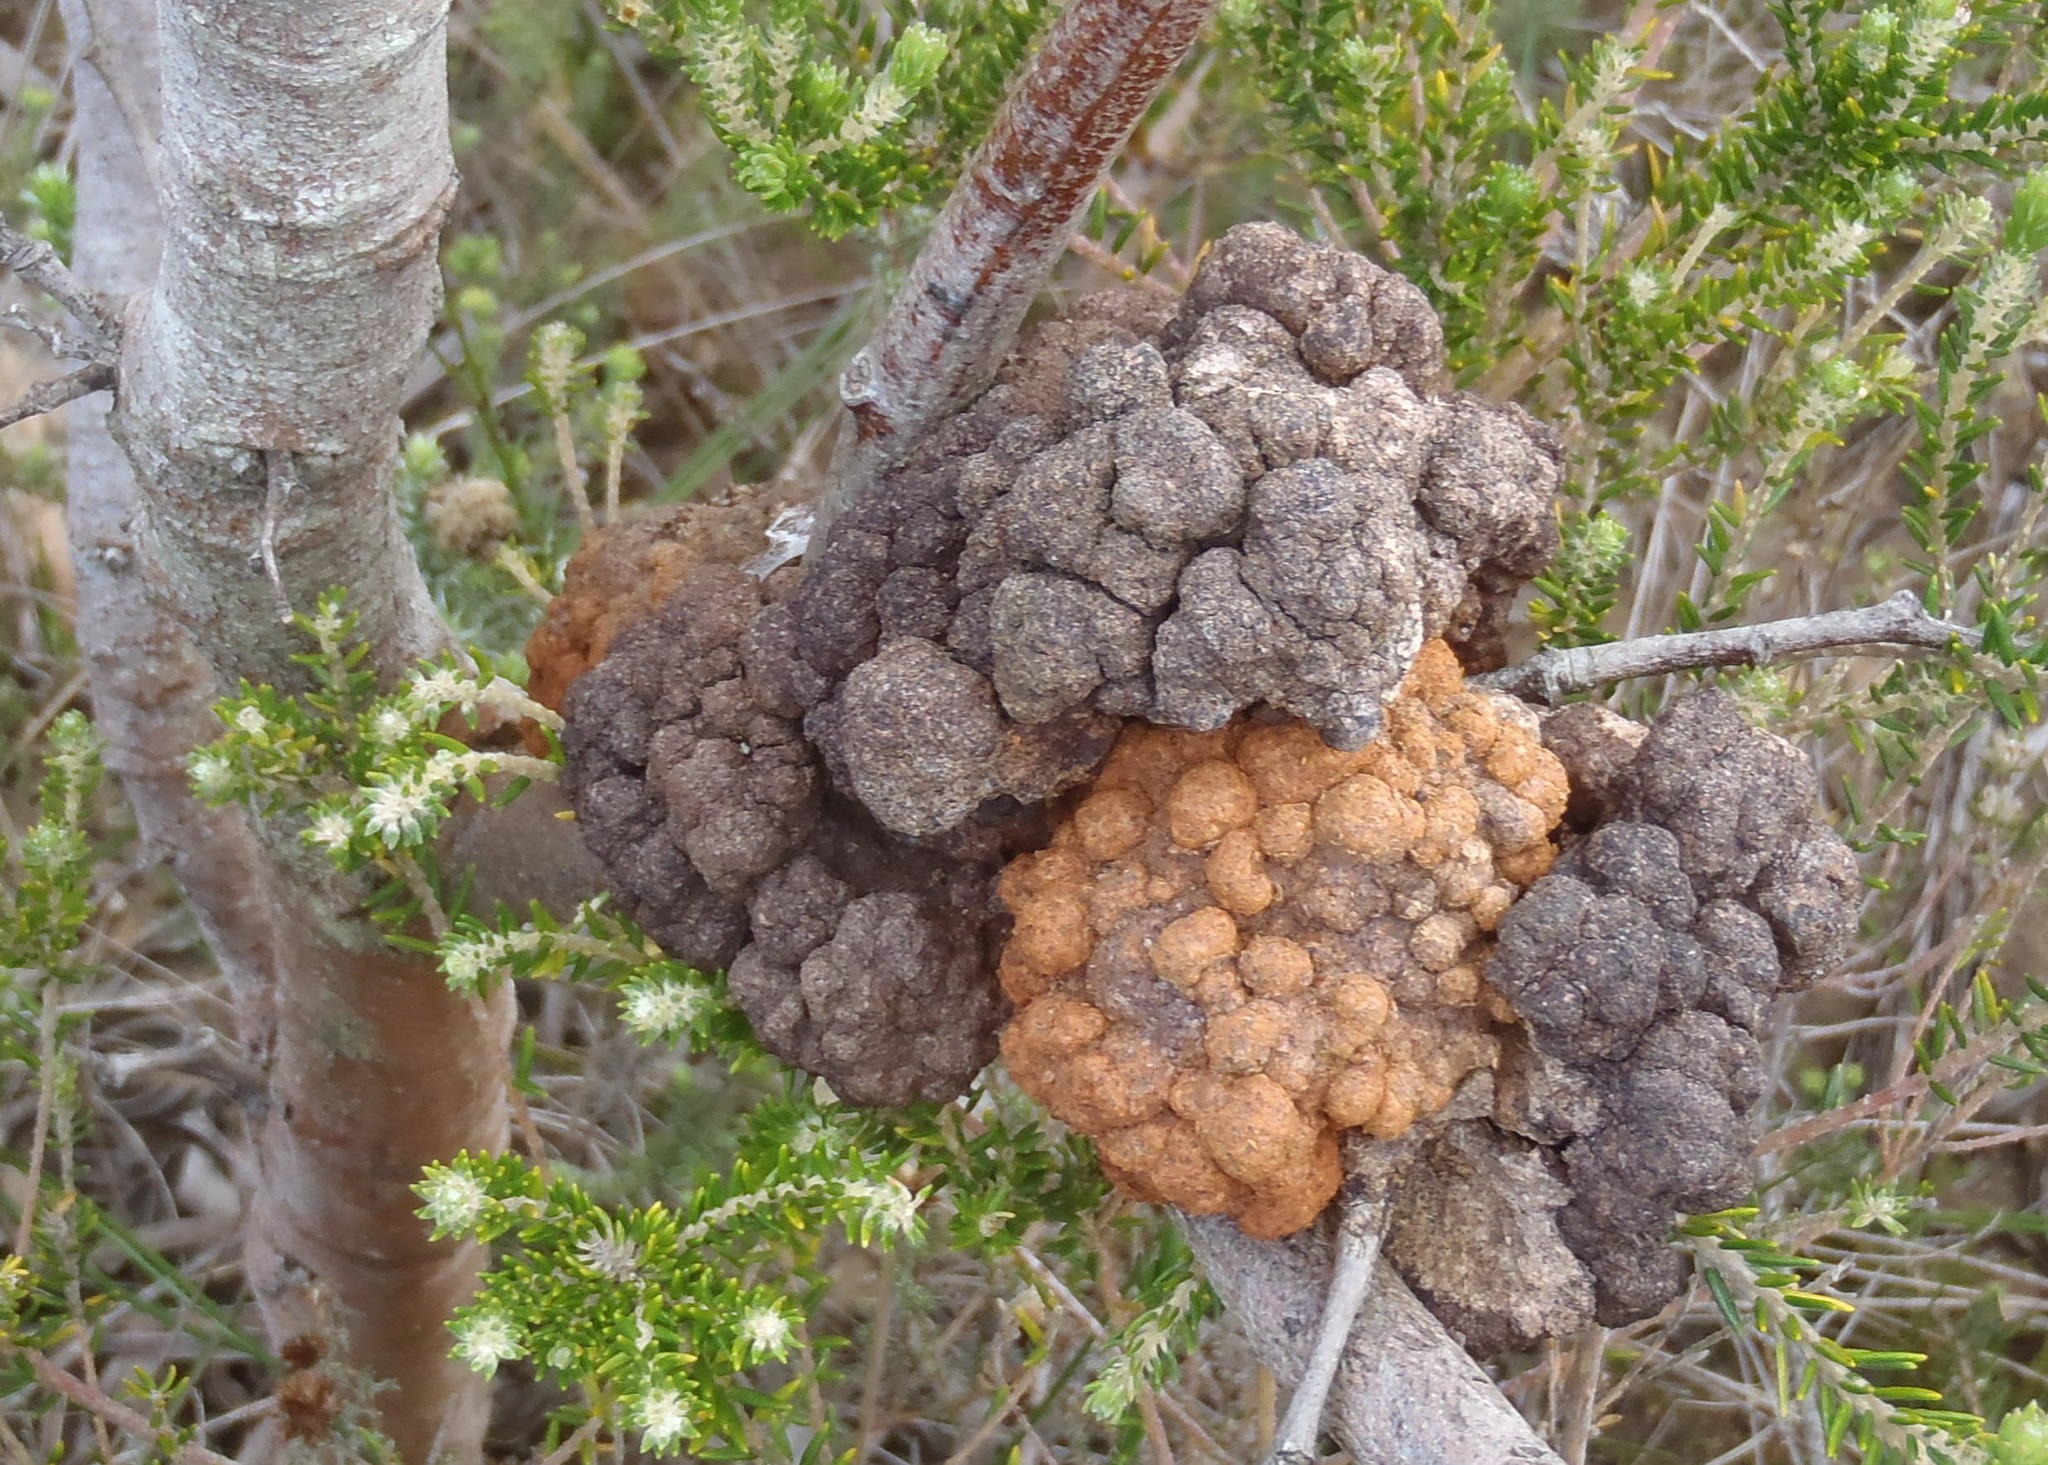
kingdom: Fungi
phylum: Basidiomycota
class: Pucciniomycetes
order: Pucciniales
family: Uromycladiaceae
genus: Uromycladium
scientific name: Uromycladium morrisii
